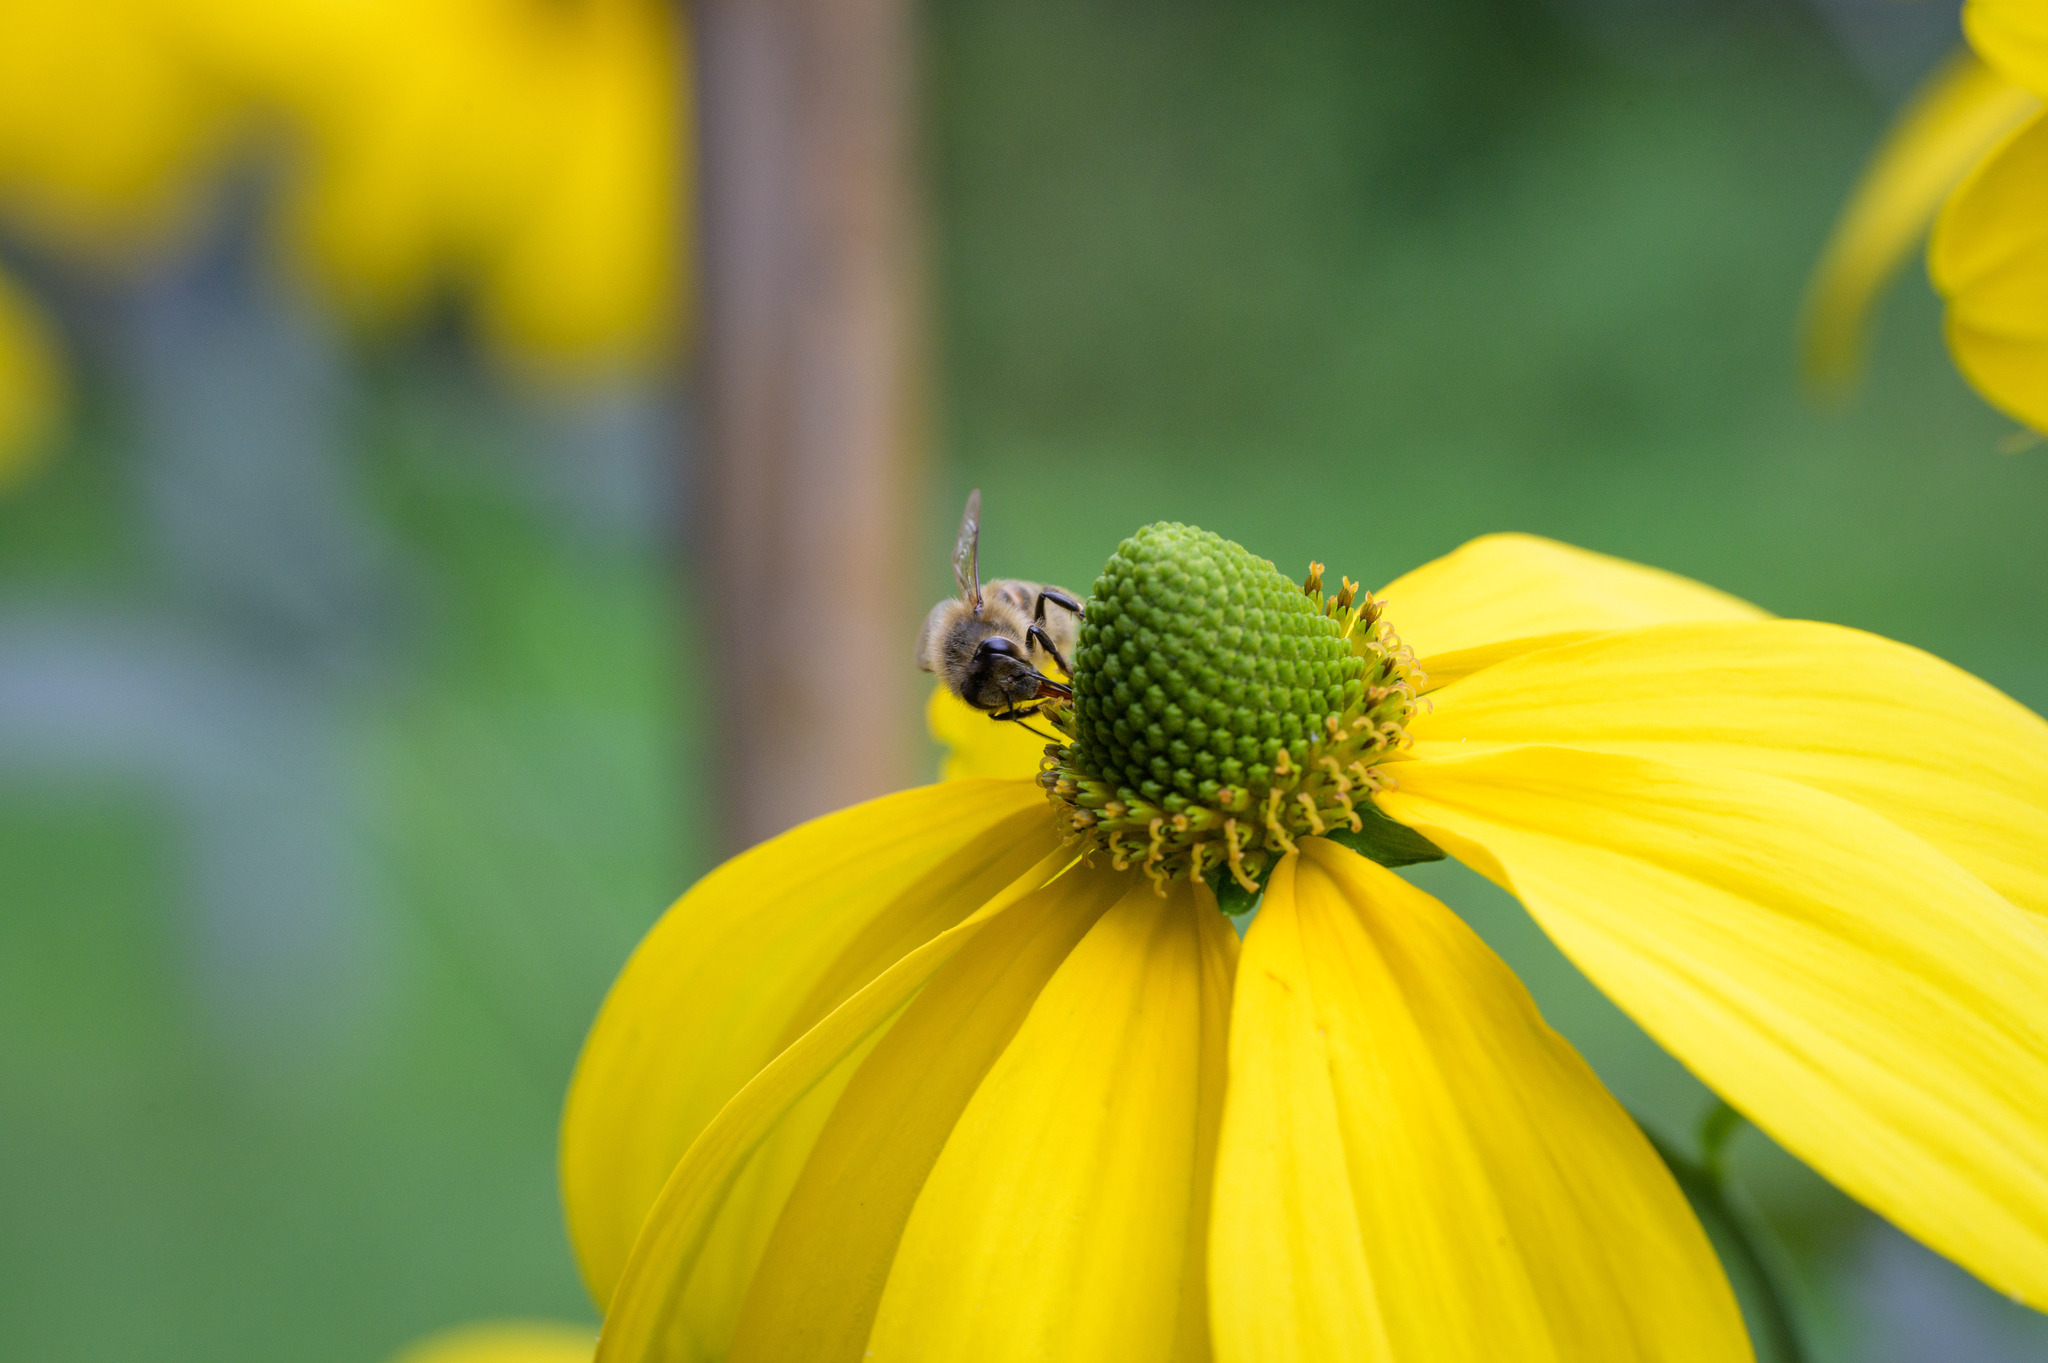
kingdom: Animalia
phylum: Arthropoda
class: Insecta
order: Hymenoptera
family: Apidae
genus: Apis
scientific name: Apis mellifera
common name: Honey bee
